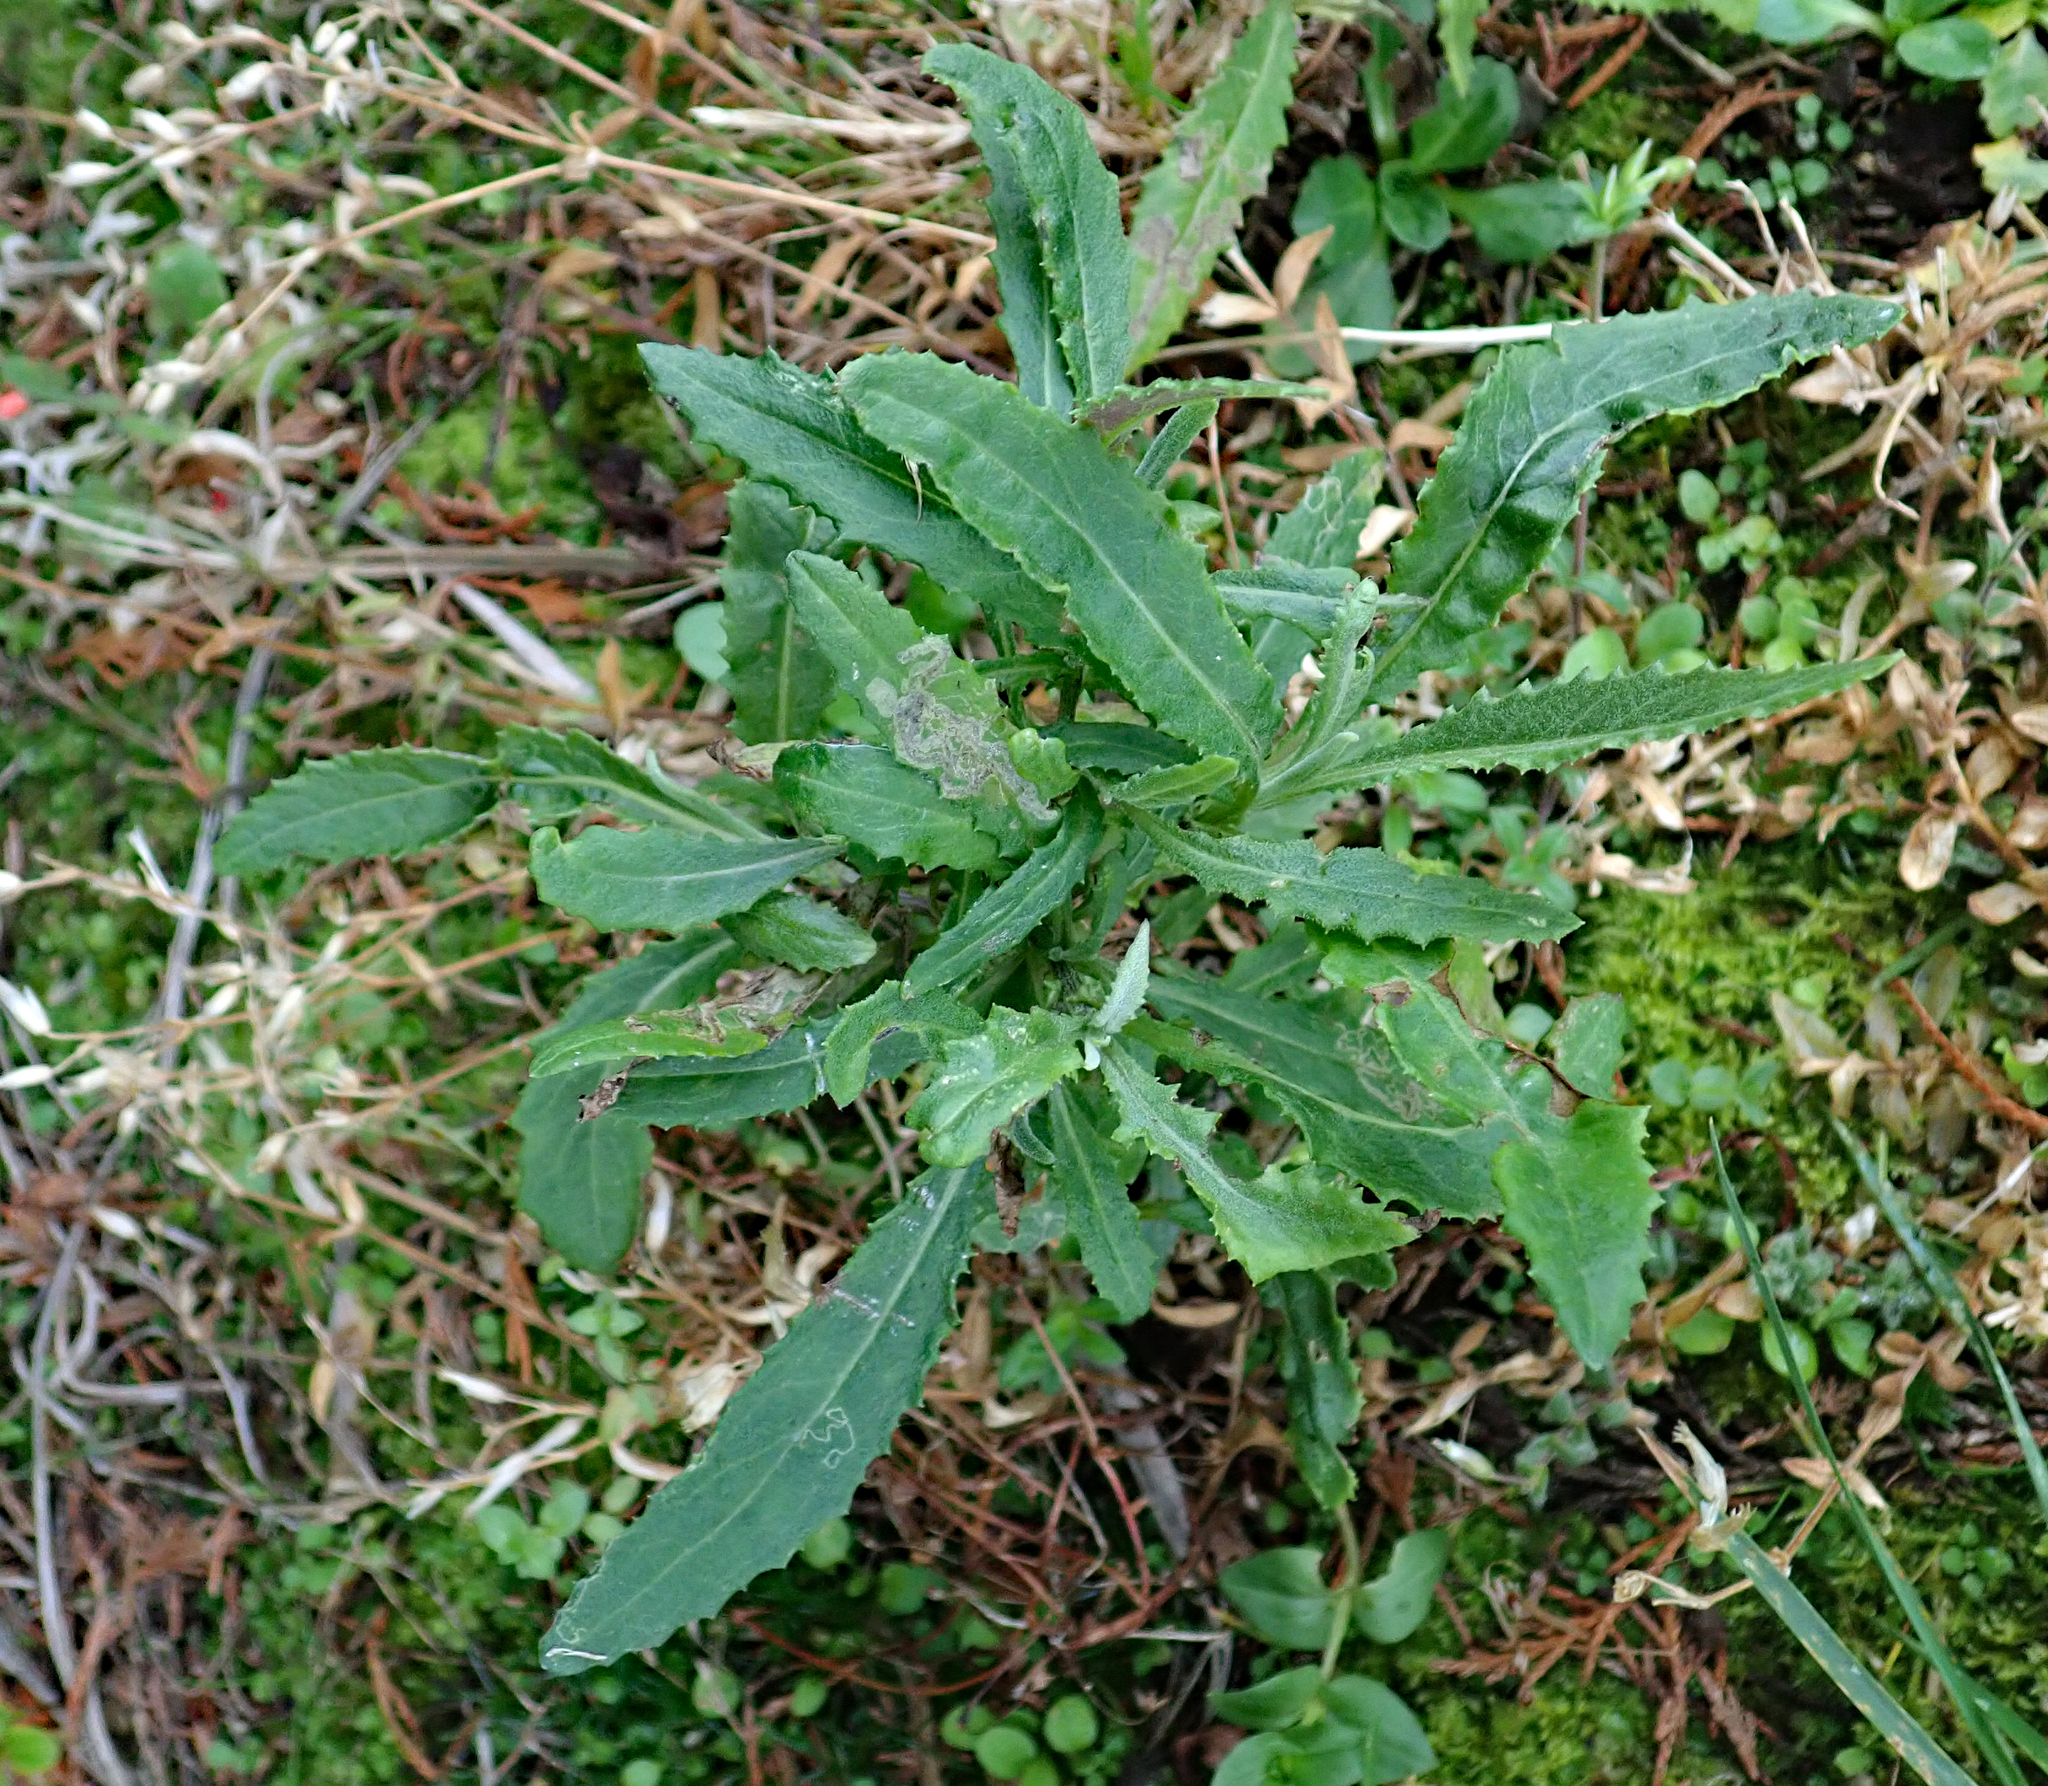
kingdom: Plantae
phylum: Tracheophyta
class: Magnoliopsida
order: Asterales
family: Asteraceae
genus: Senecio
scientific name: Senecio minimus
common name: Toothed fireweed
